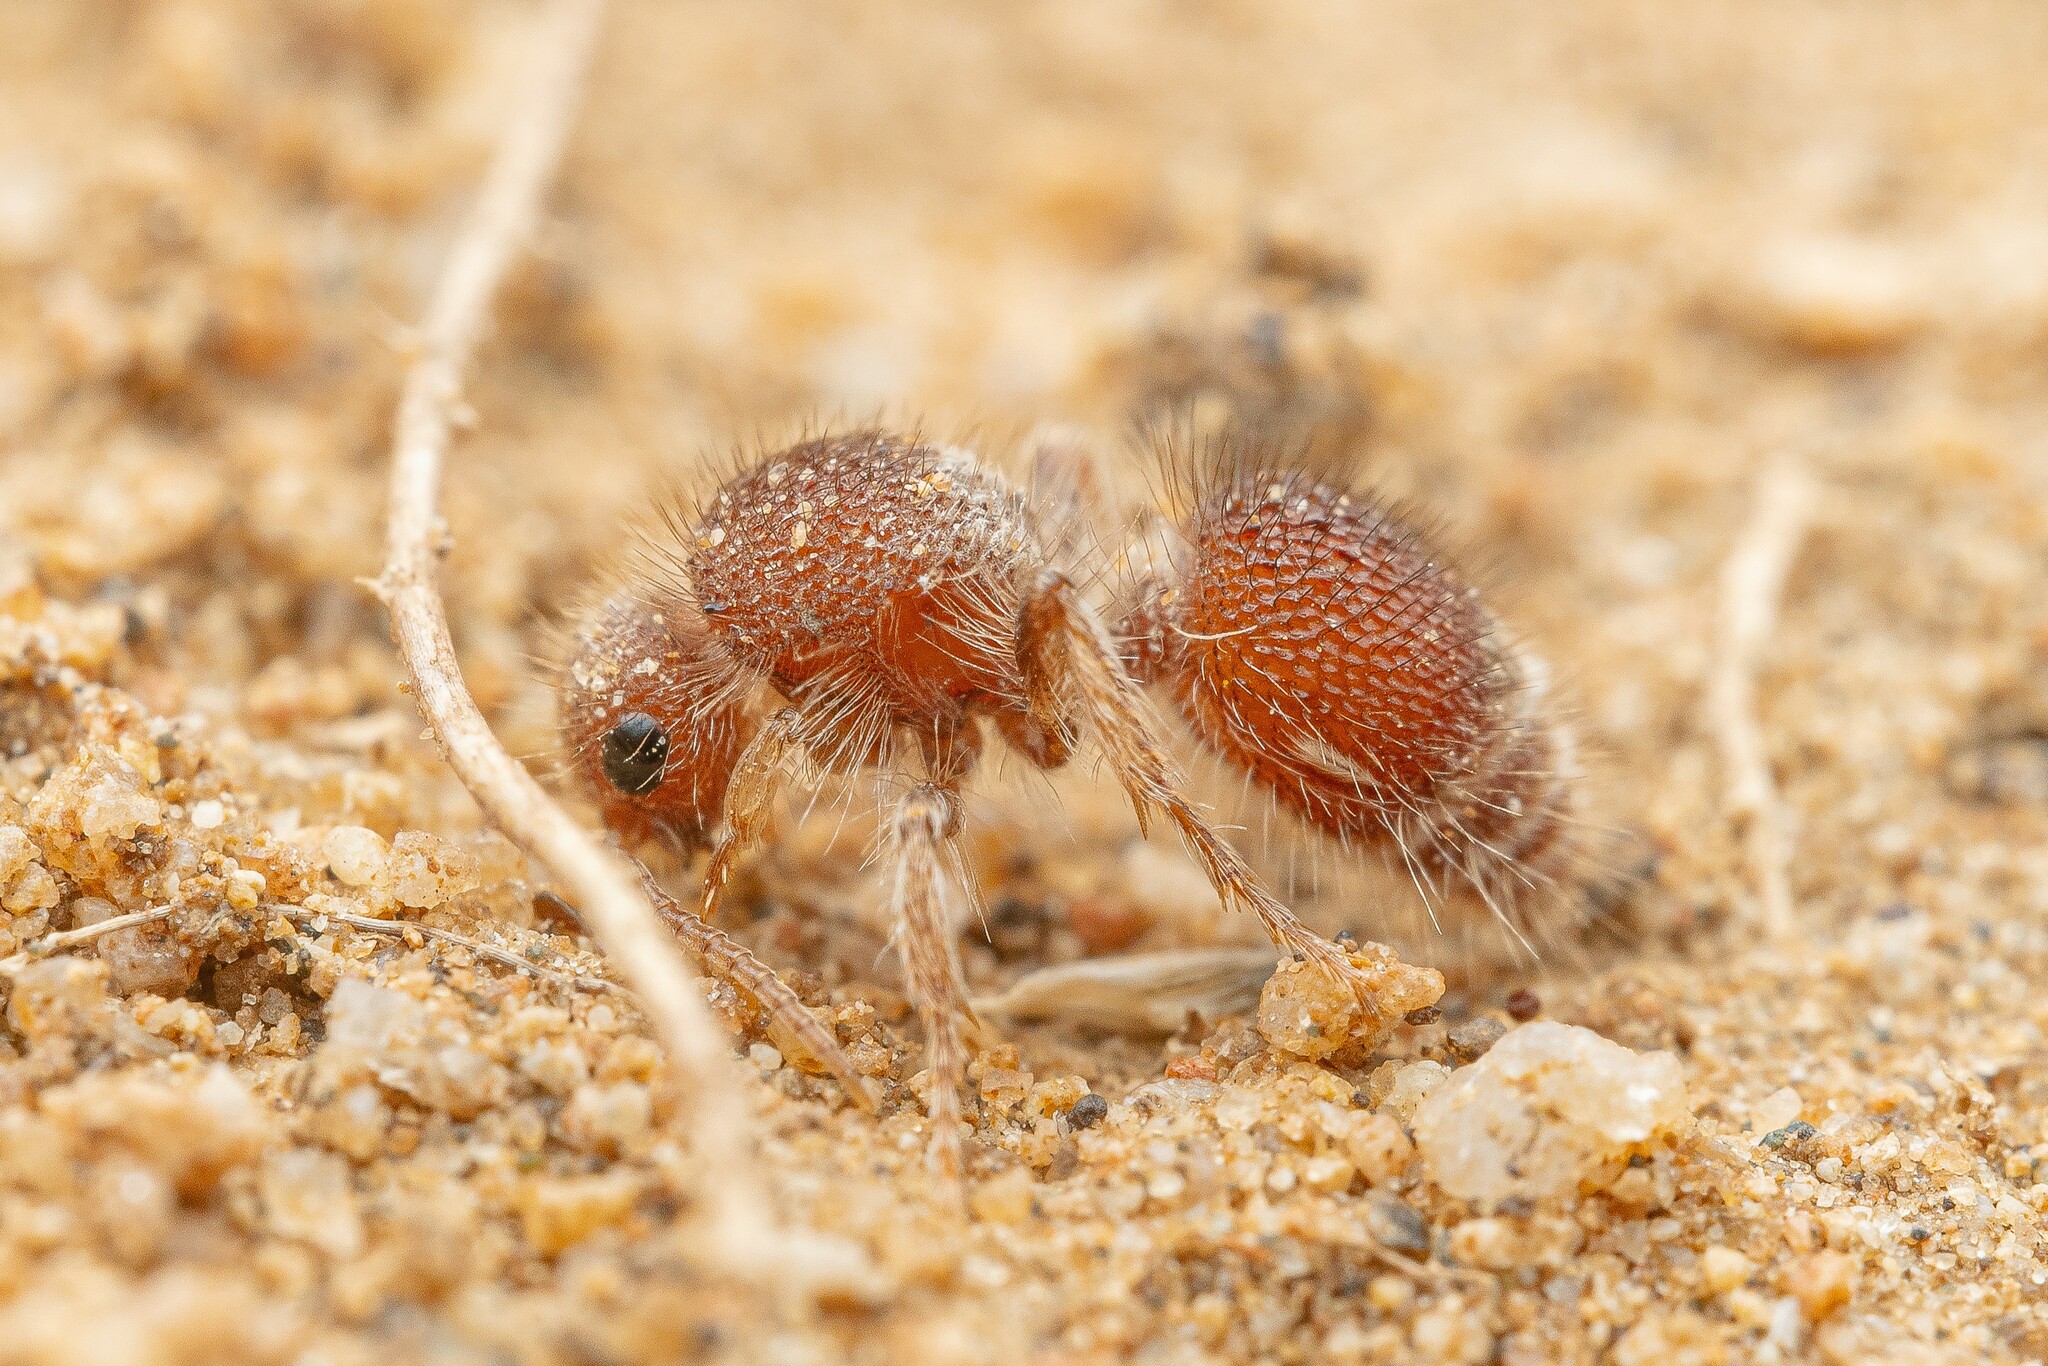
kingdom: Animalia
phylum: Arthropoda
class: Insecta
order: Hymenoptera
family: Mutillidae
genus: Acrophotopsis
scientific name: Acrophotopsis dirce
